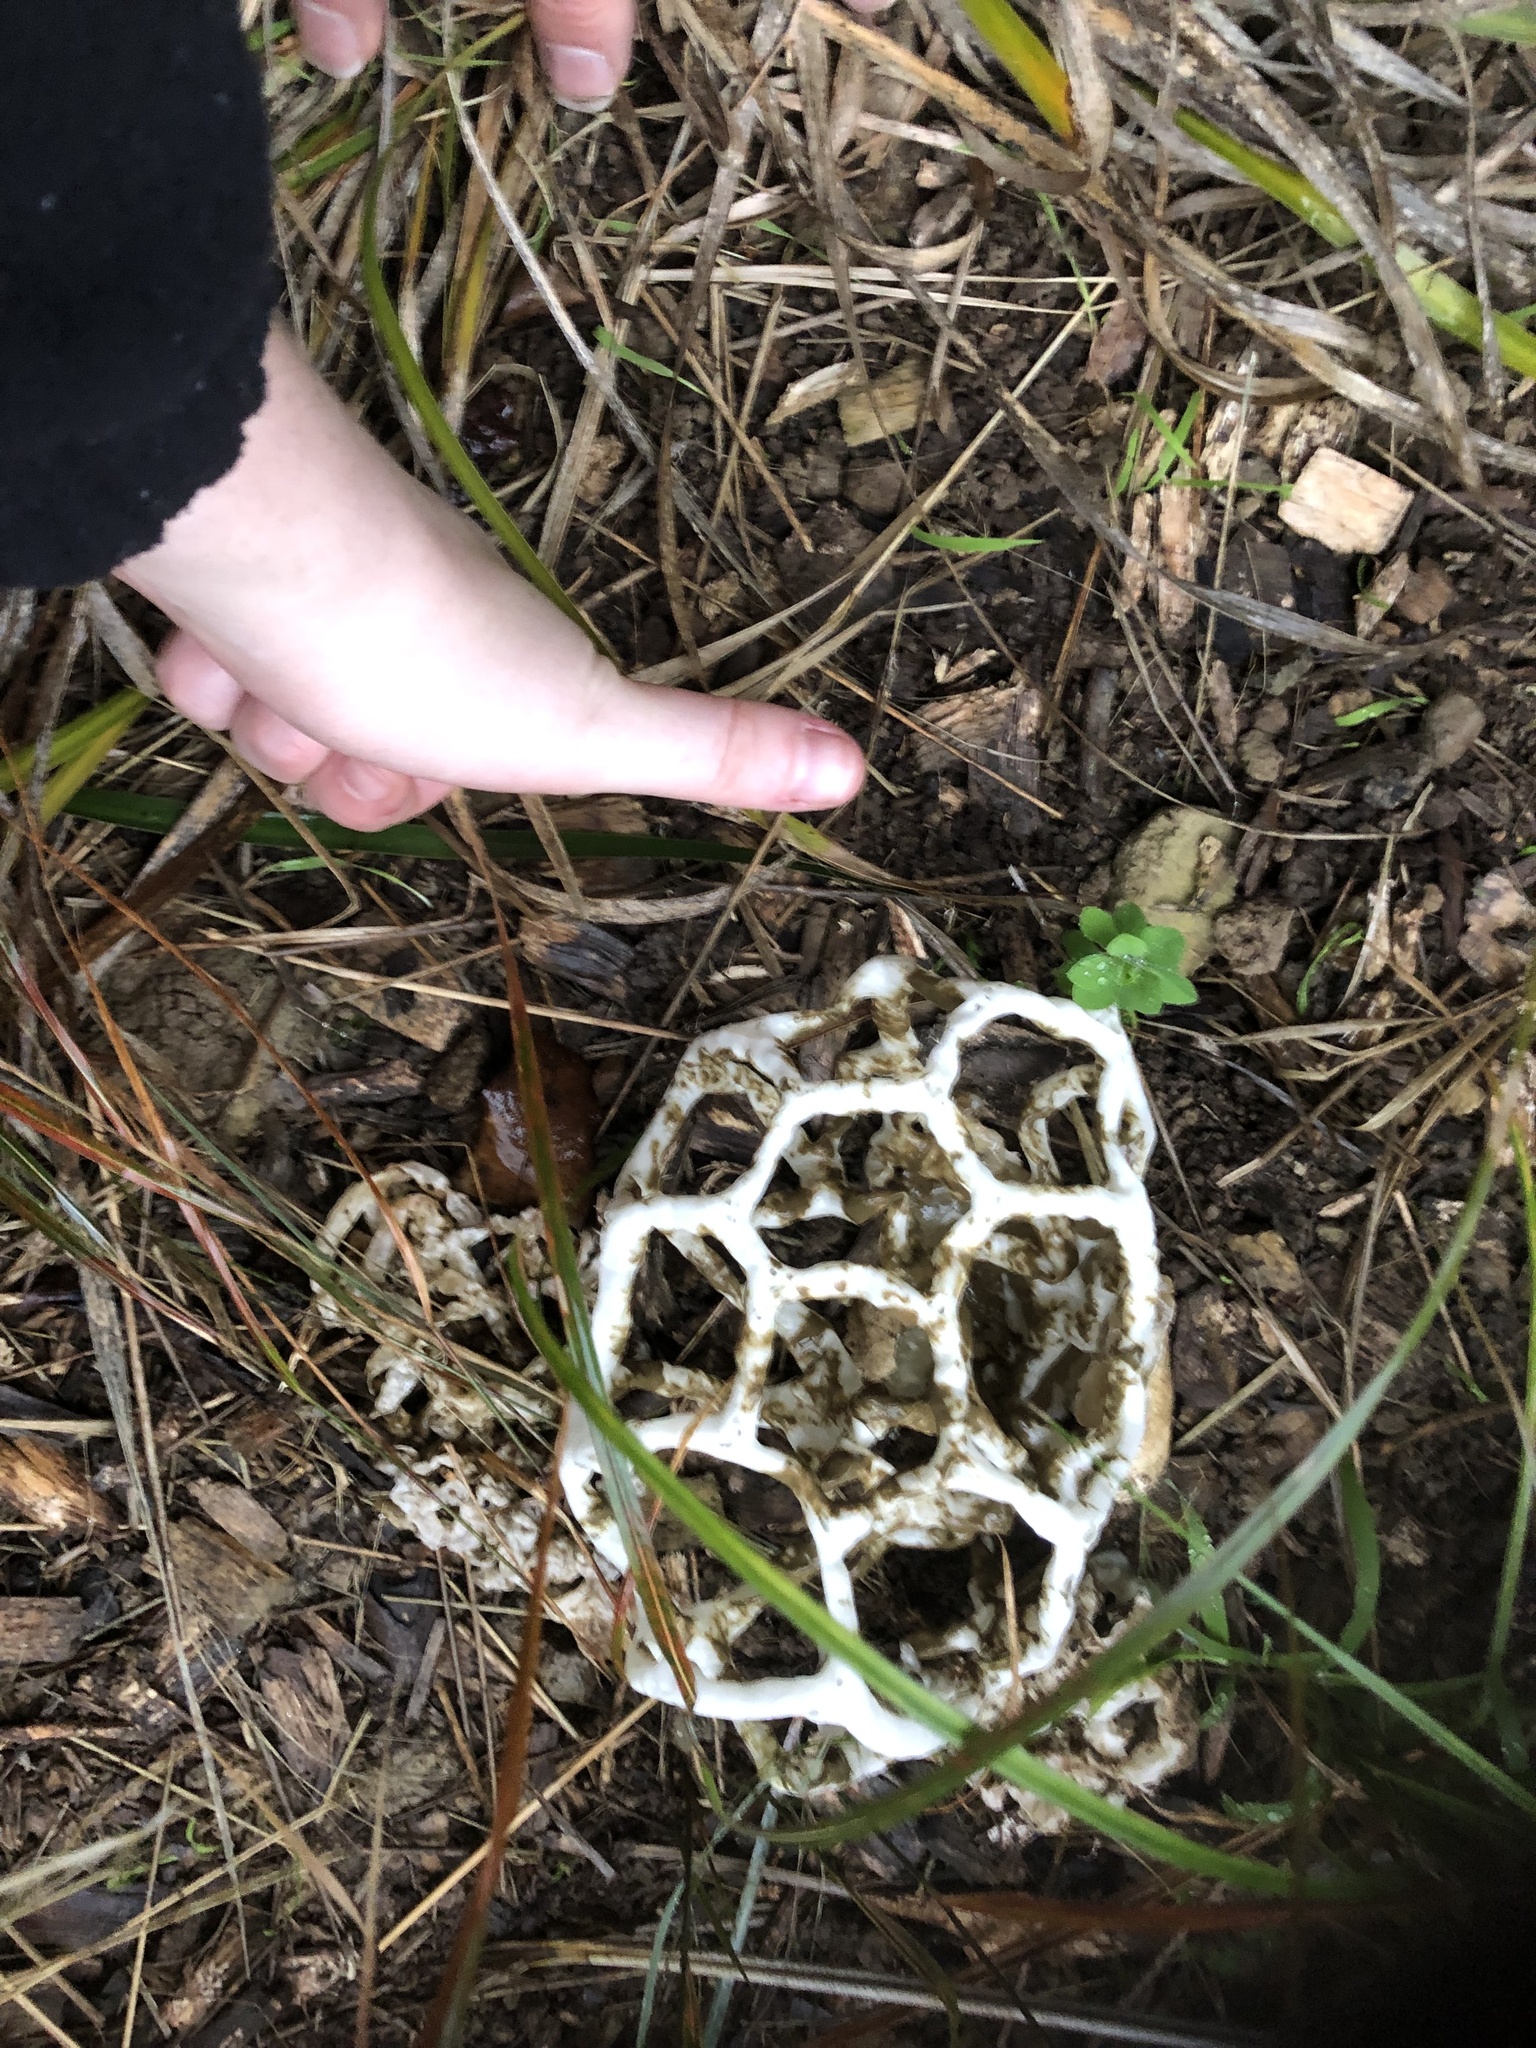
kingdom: Fungi
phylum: Basidiomycota
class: Agaricomycetes
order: Phallales
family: Phallaceae
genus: Ileodictyon
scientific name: Ileodictyon cibarium
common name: Basket fungus
